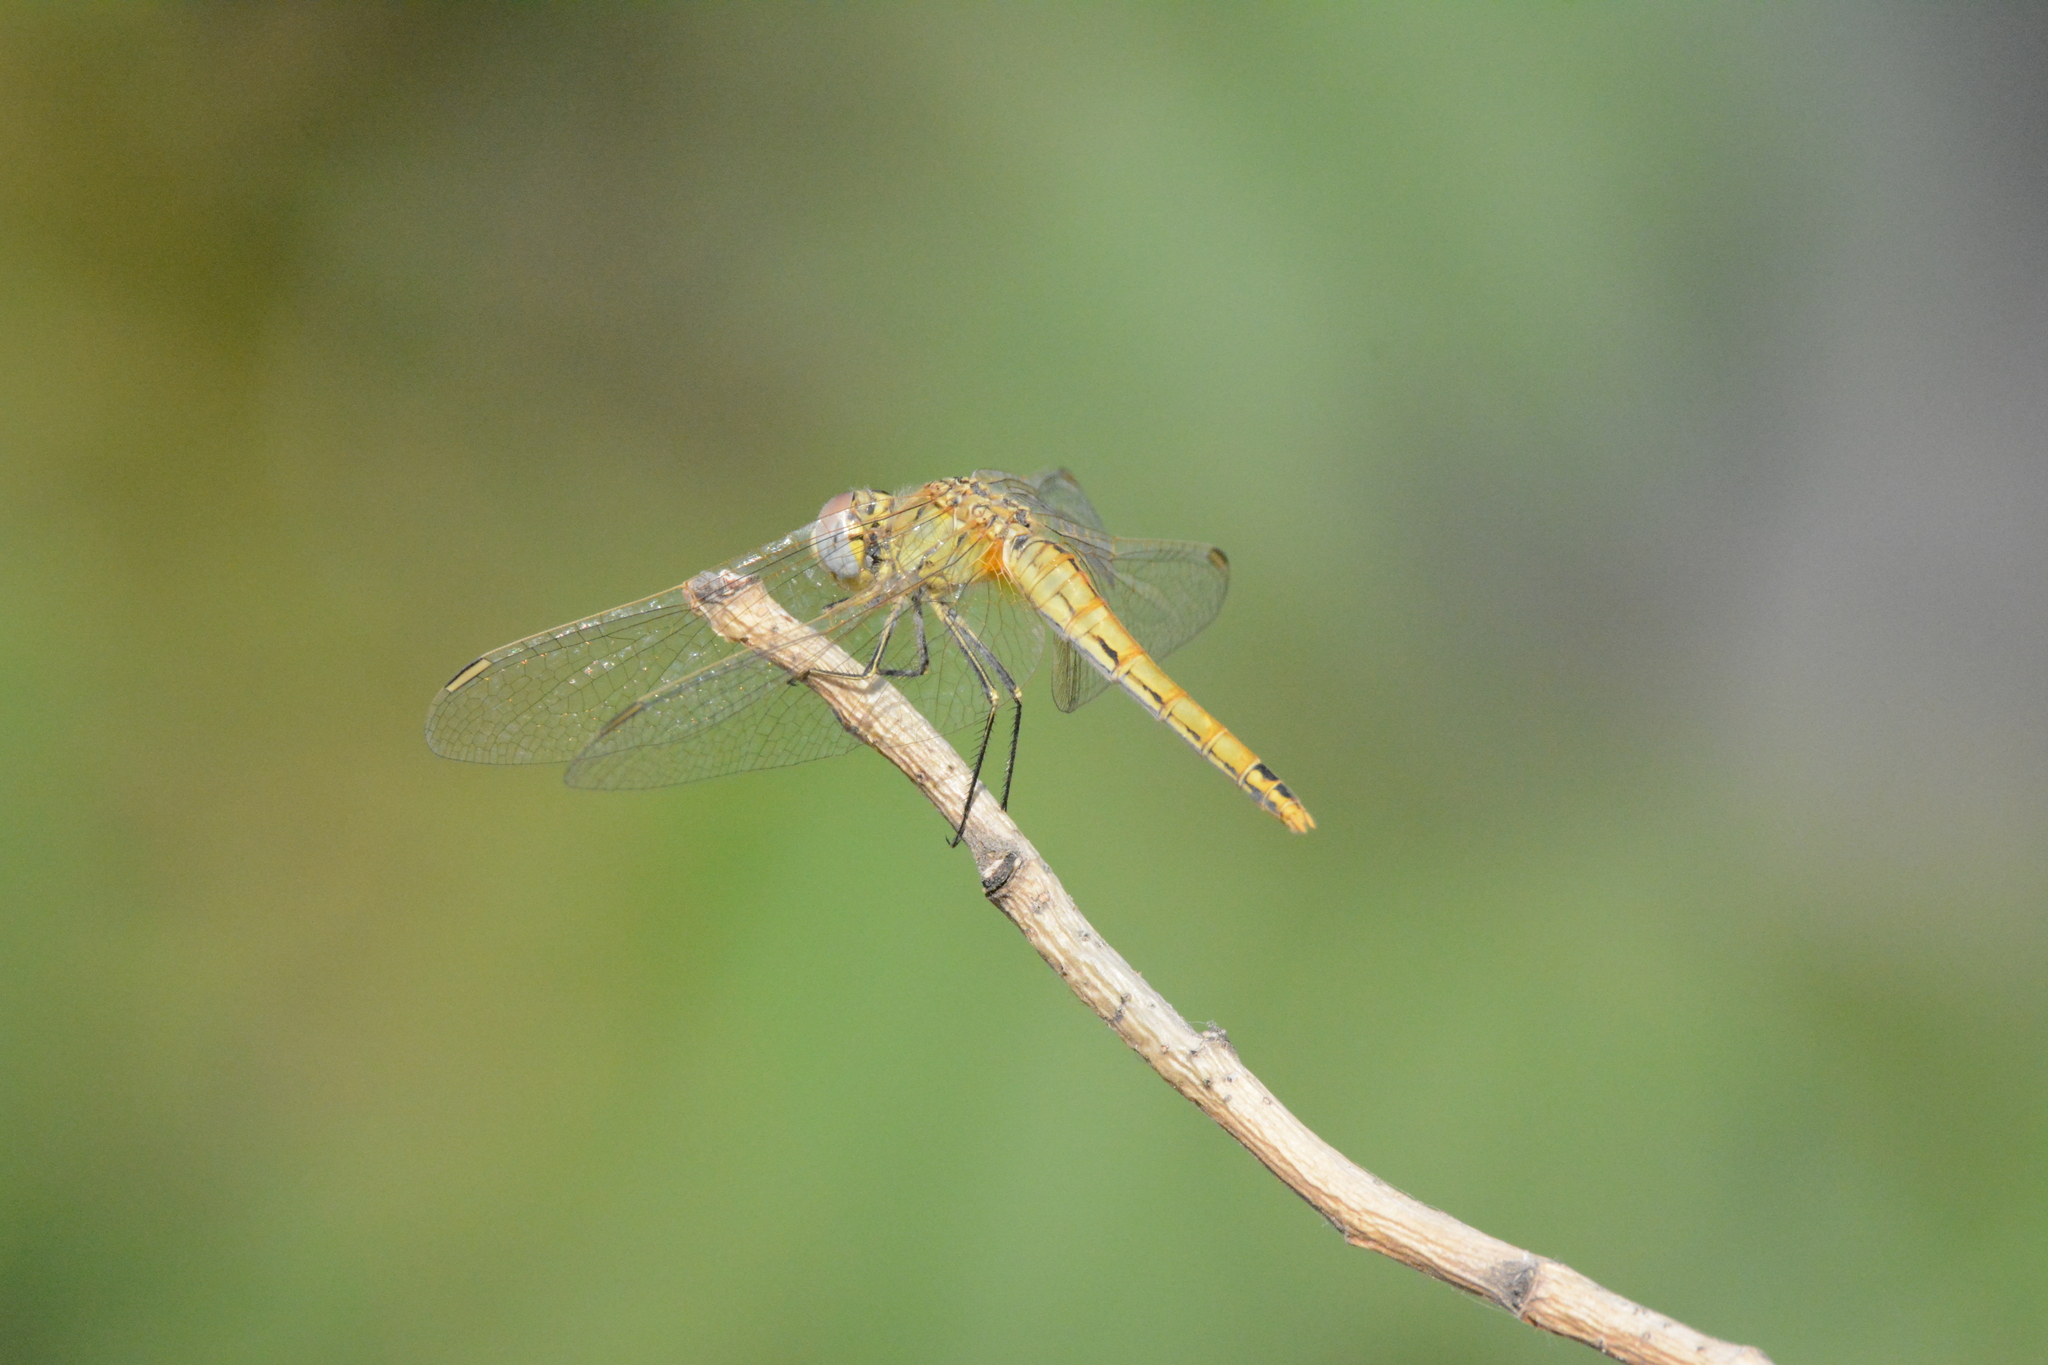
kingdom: Animalia
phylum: Arthropoda
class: Insecta
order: Odonata
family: Libellulidae
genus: Sympetrum
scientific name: Sympetrum fonscolombii
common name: Red-veined darter
